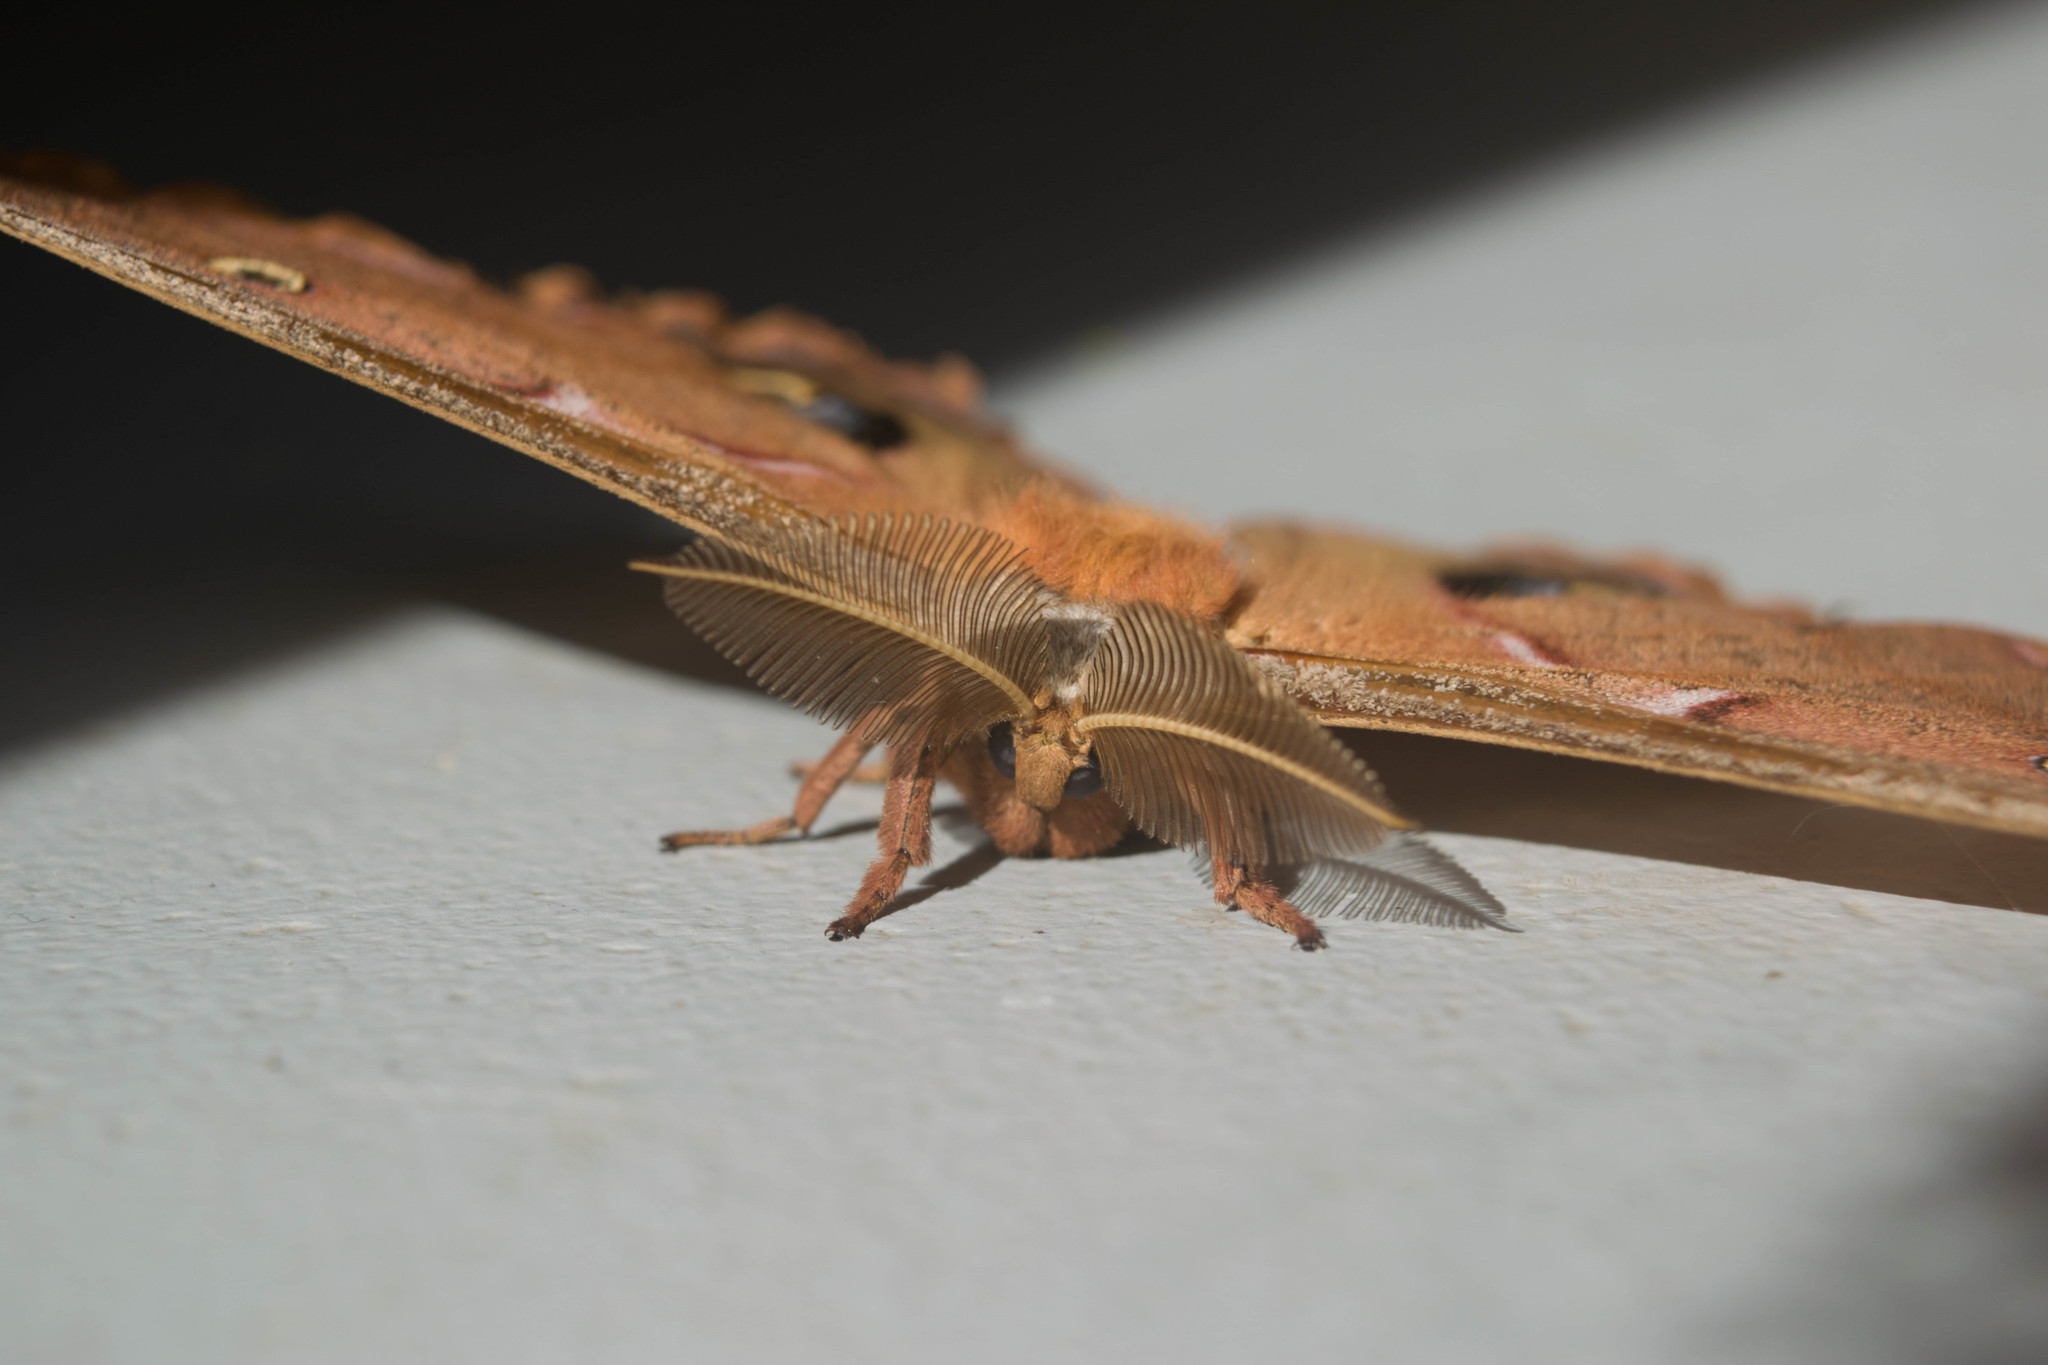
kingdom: Animalia
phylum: Arthropoda
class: Insecta
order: Lepidoptera
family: Saturniidae
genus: Antheraea
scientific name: Antheraea polyphemus
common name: Polyphemus moth
